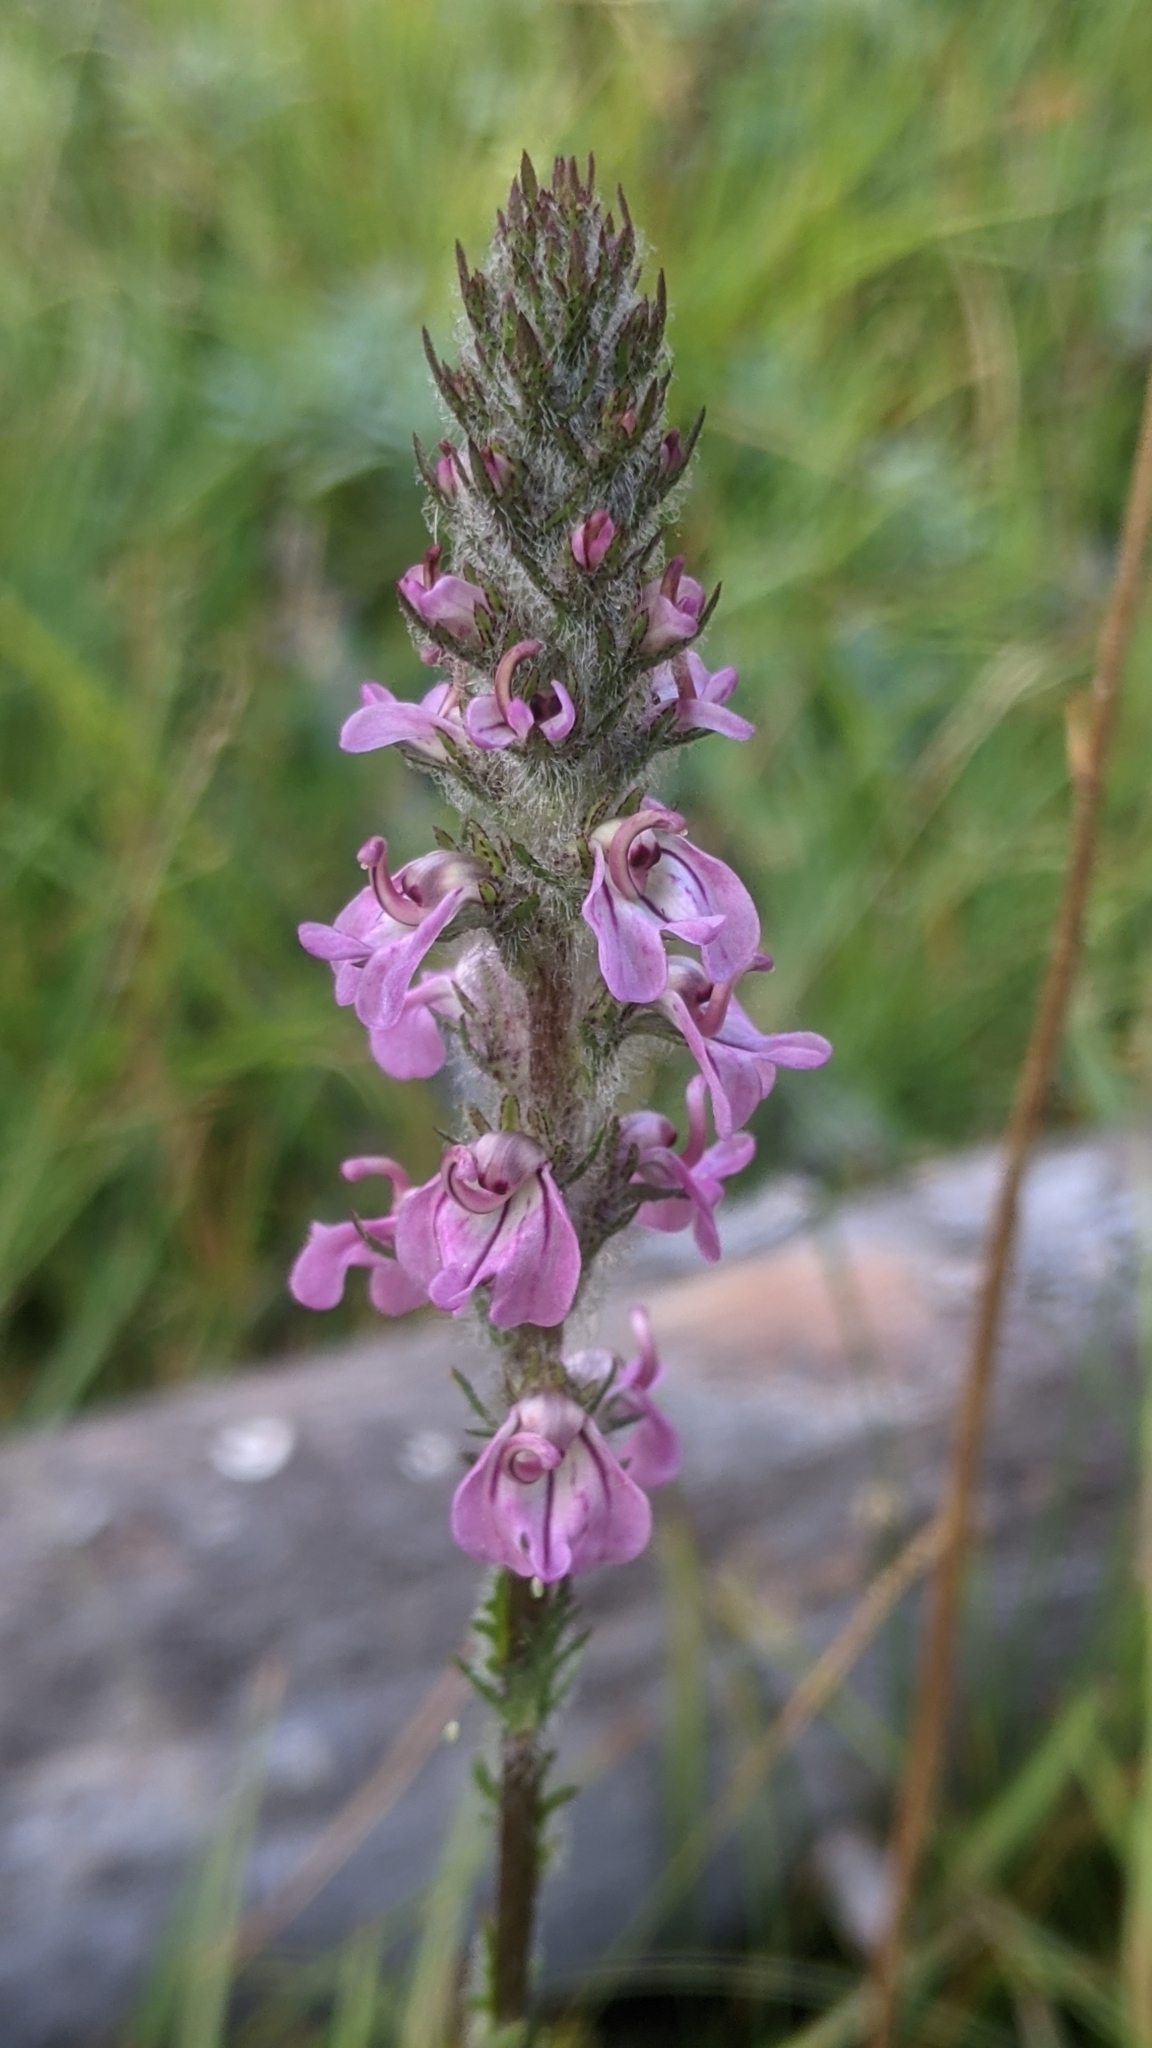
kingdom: Plantae
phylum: Tracheophyta
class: Magnoliopsida
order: Lamiales
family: Orobanchaceae
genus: Pedicularis
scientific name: Pedicularis attollens
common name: Slender pedicularis
